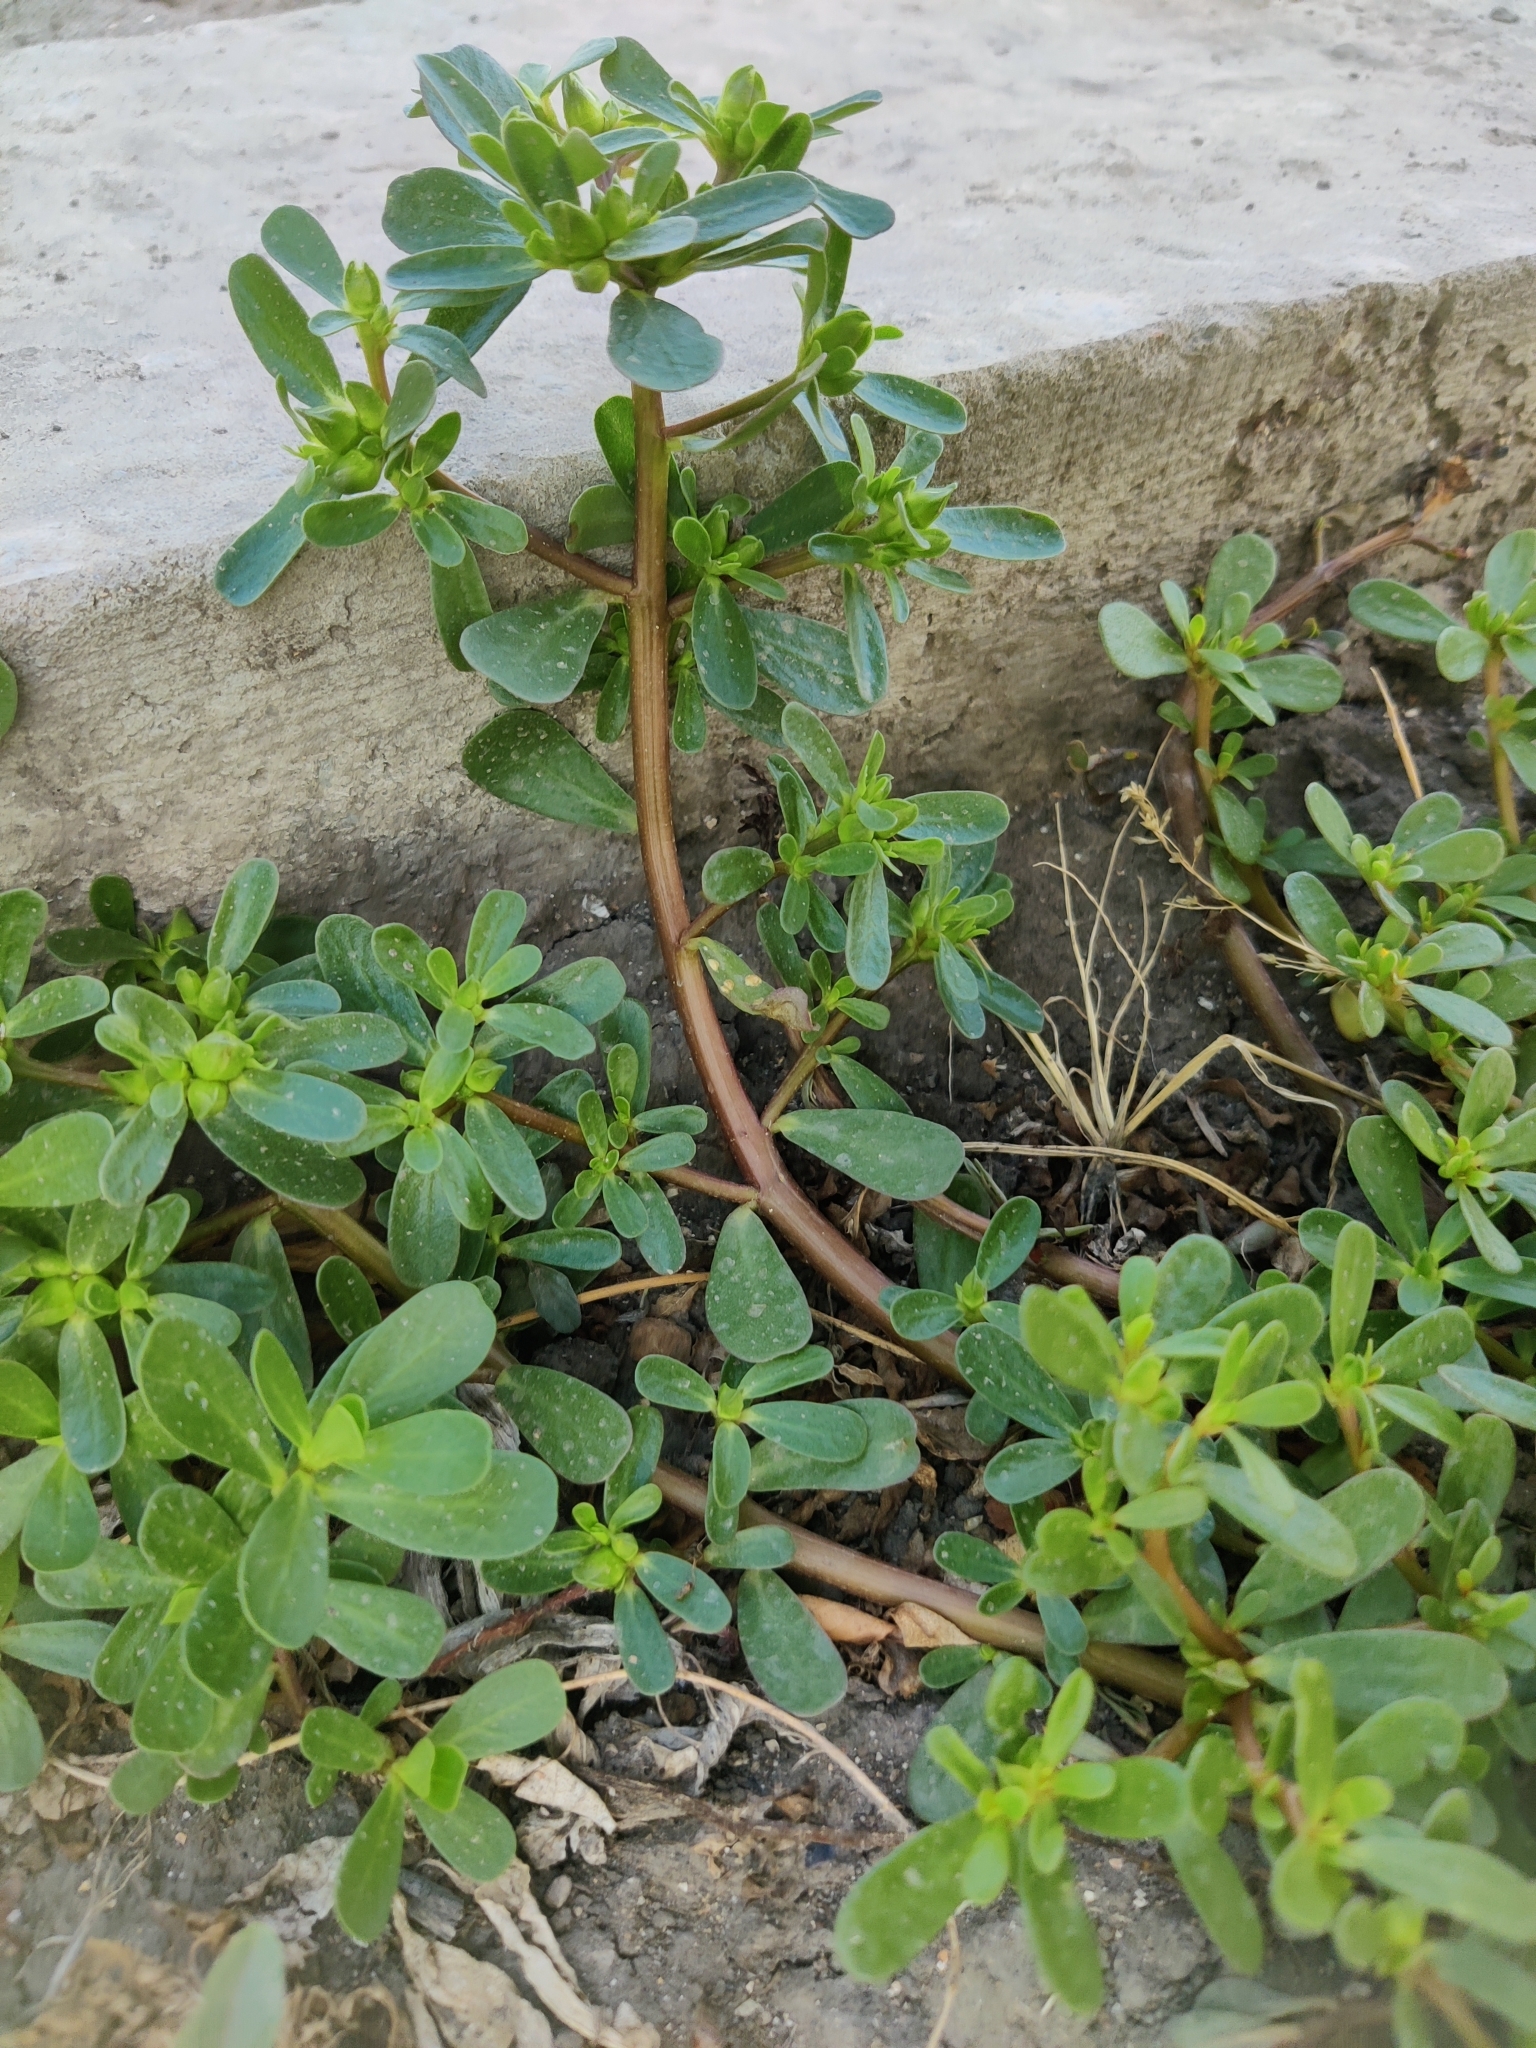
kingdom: Plantae
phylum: Tracheophyta
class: Magnoliopsida
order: Caryophyllales
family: Portulacaceae
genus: Portulaca
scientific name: Portulaca oleracea
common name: Common purslane
